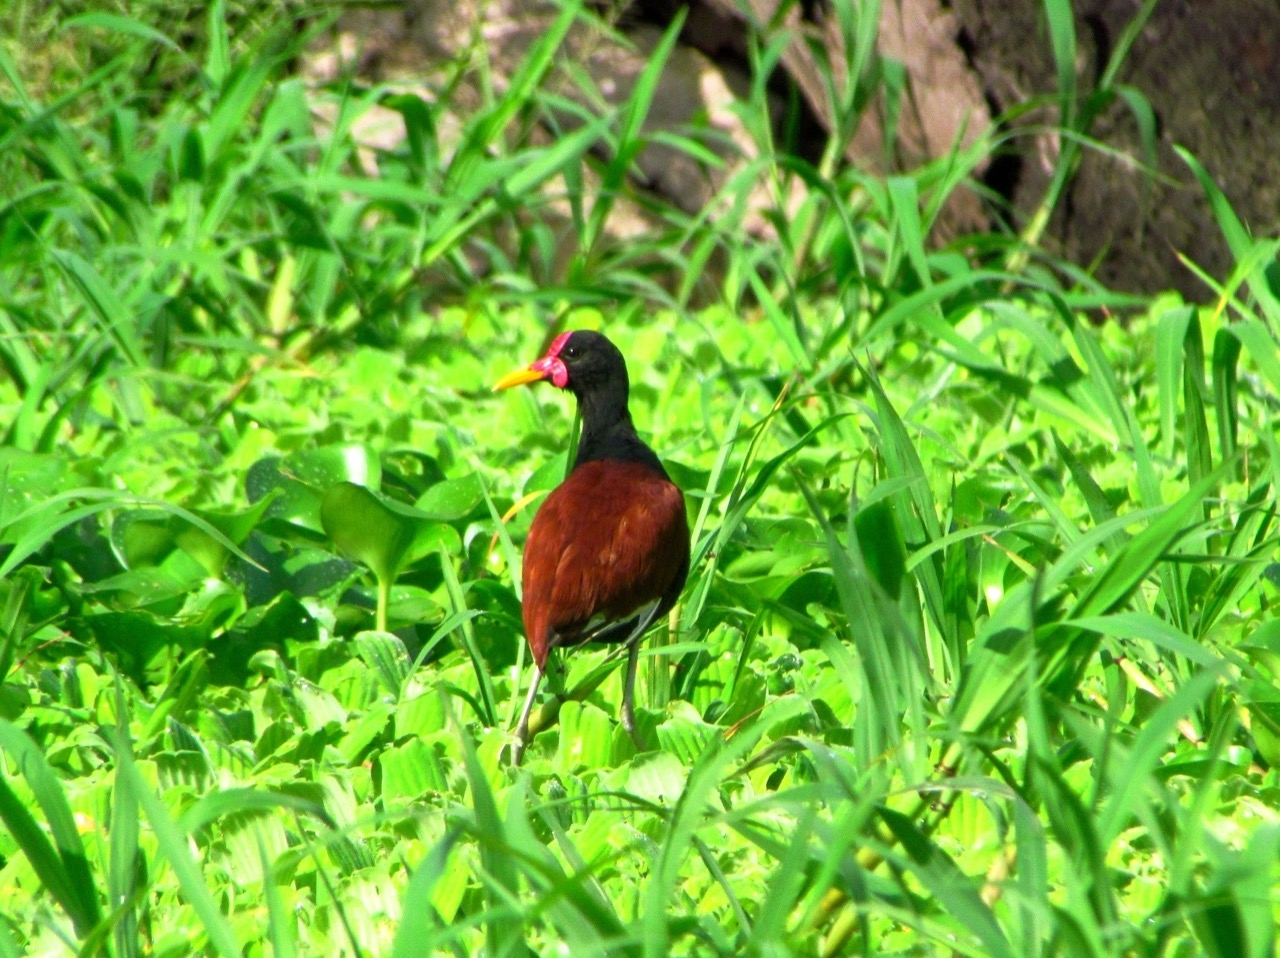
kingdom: Animalia
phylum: Chordata
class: Aves
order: Charadriiformes
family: Jacanidae
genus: Jacana
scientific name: Jacana jacana
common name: Wattled jacana
